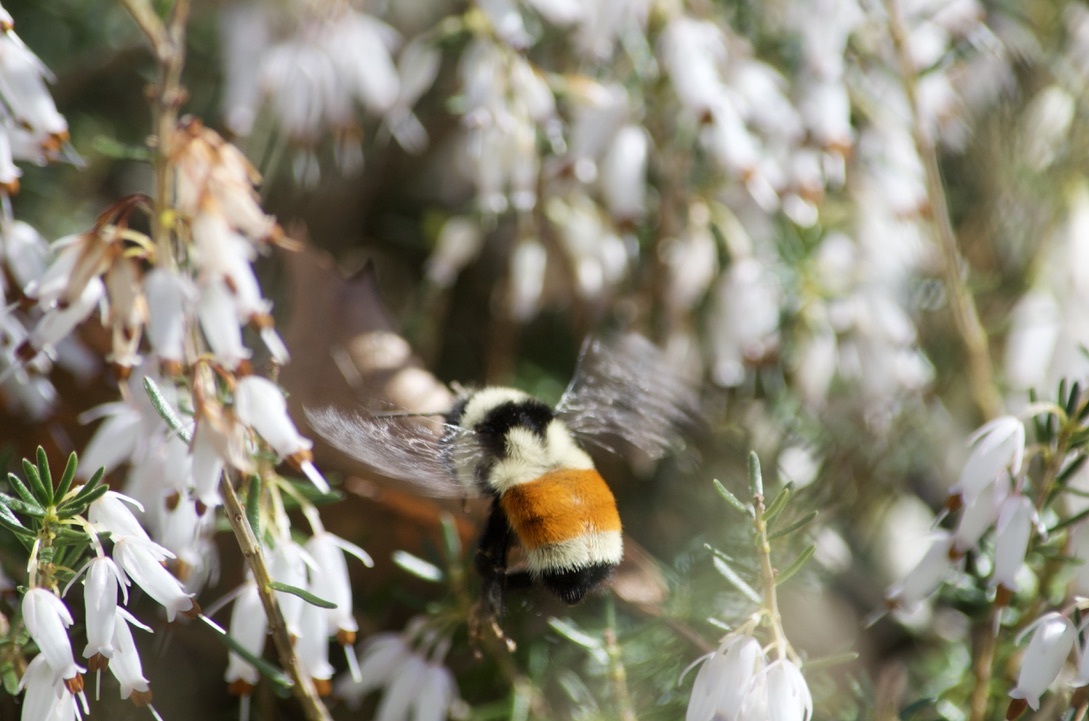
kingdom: Animalia
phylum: Arthropoda
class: Insecta
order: Hymenoptera
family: Apidae
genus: Bombus
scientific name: Bombus ternarius
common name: Tri-colored bumble bee
